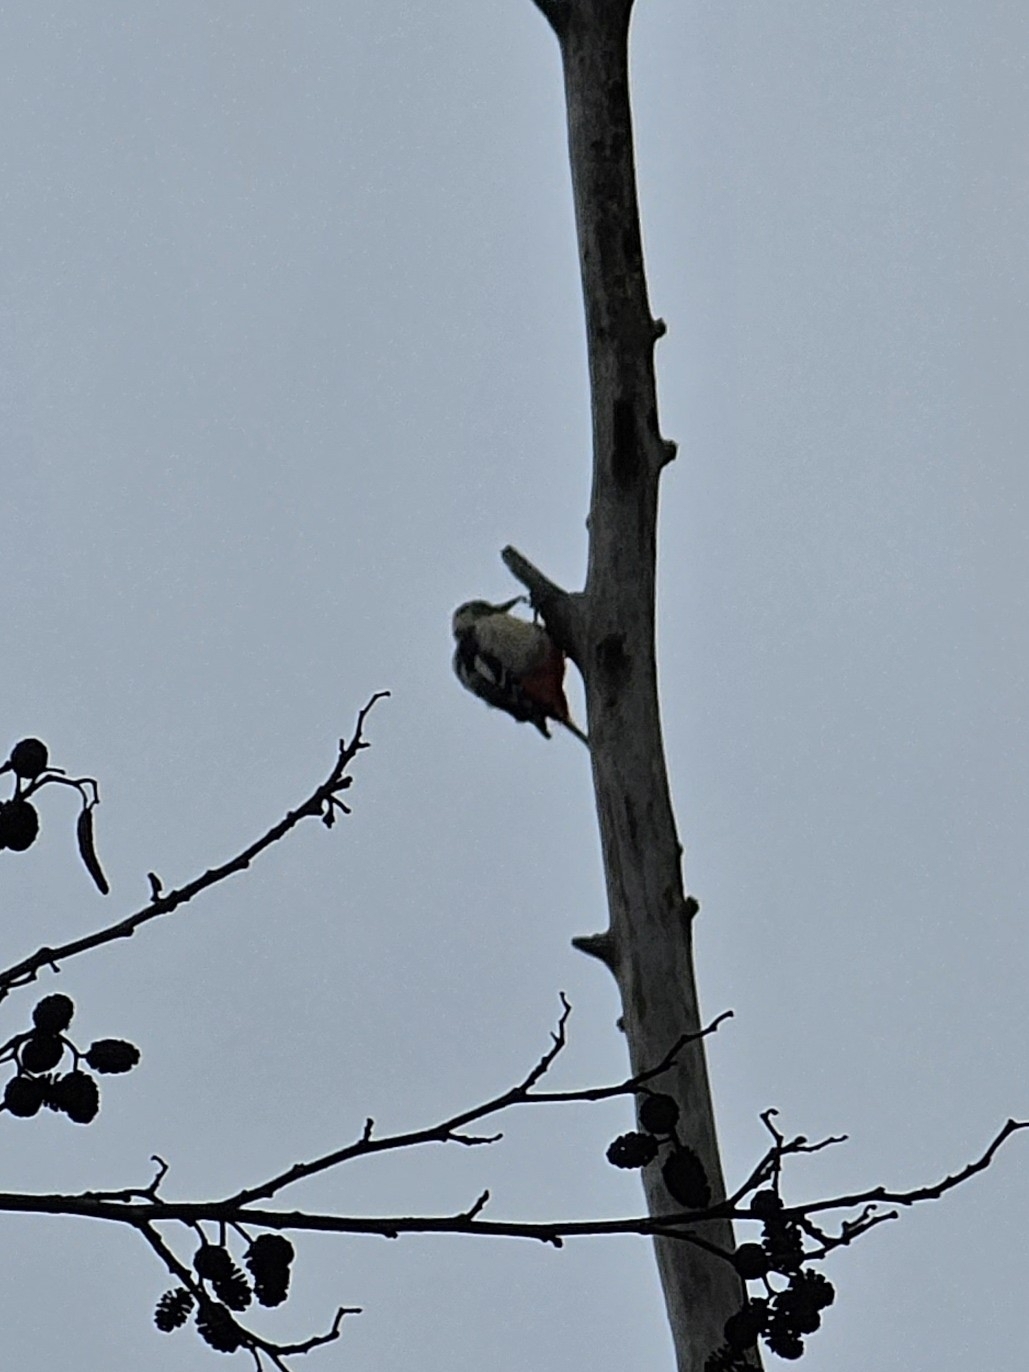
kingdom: Animalia
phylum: Chordata
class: Aves
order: Piciformes
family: Picidae
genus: Dendrocopos
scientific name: Dendrocopos major
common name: Great spotted woodpecker
